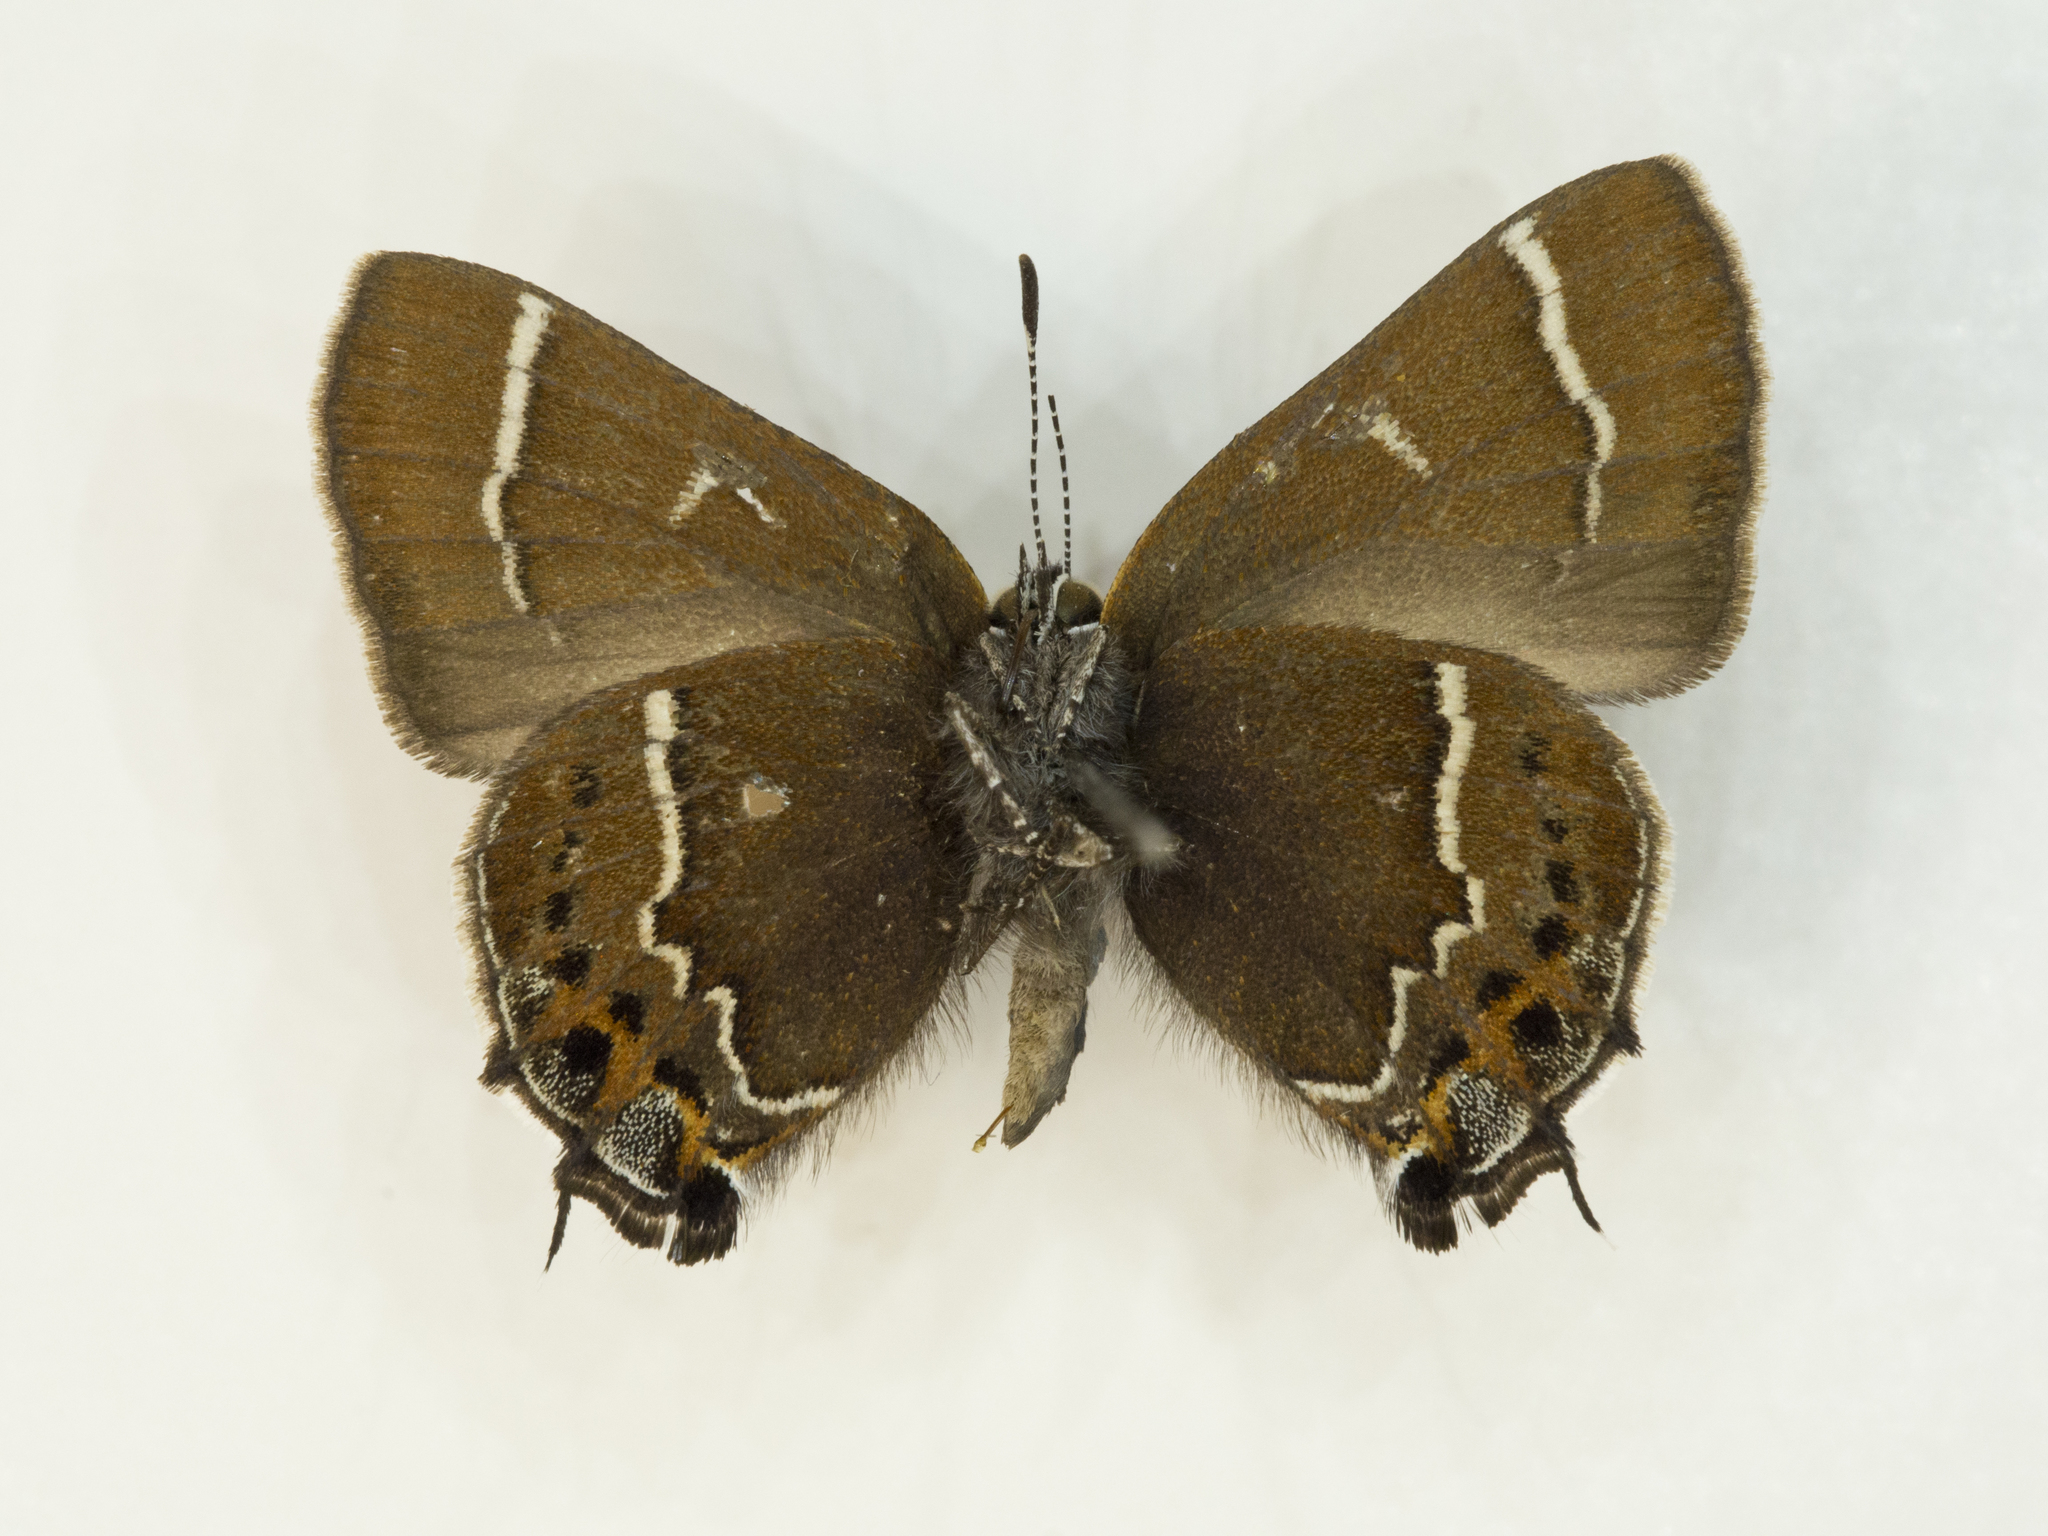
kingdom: Animalia
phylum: Arthropoda
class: Insecta
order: Lepidoptera
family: Lycaenidae
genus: Mitoura
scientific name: Mitoura spinetorum
